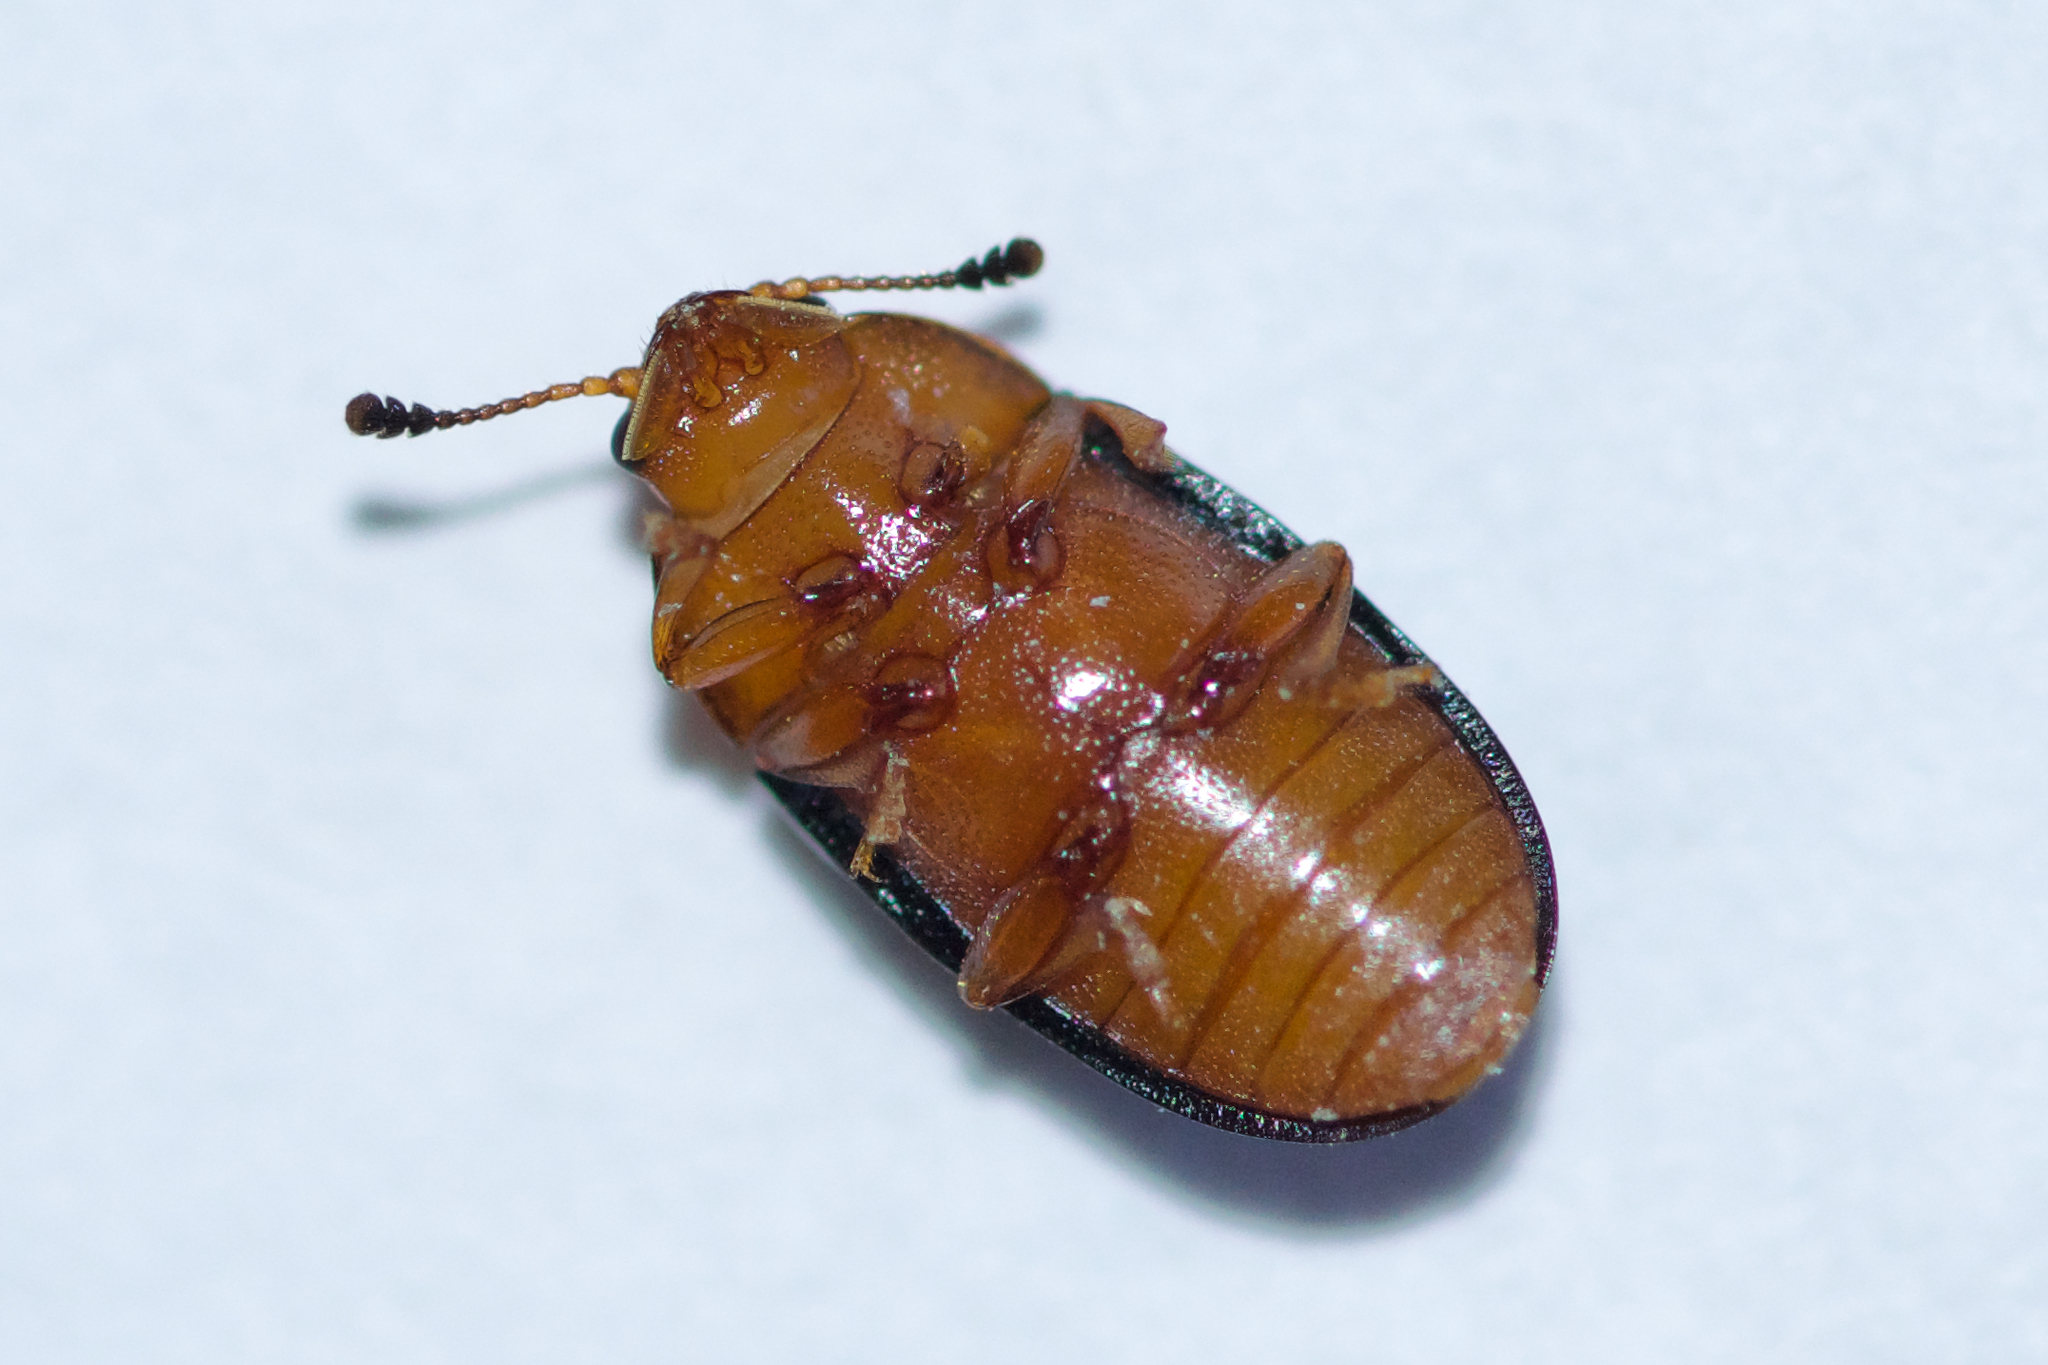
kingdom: Animalia
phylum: Arthropoda
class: Insecta
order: Coleoptera
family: Erotylidae
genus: Triplax
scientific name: Triplax frosti
